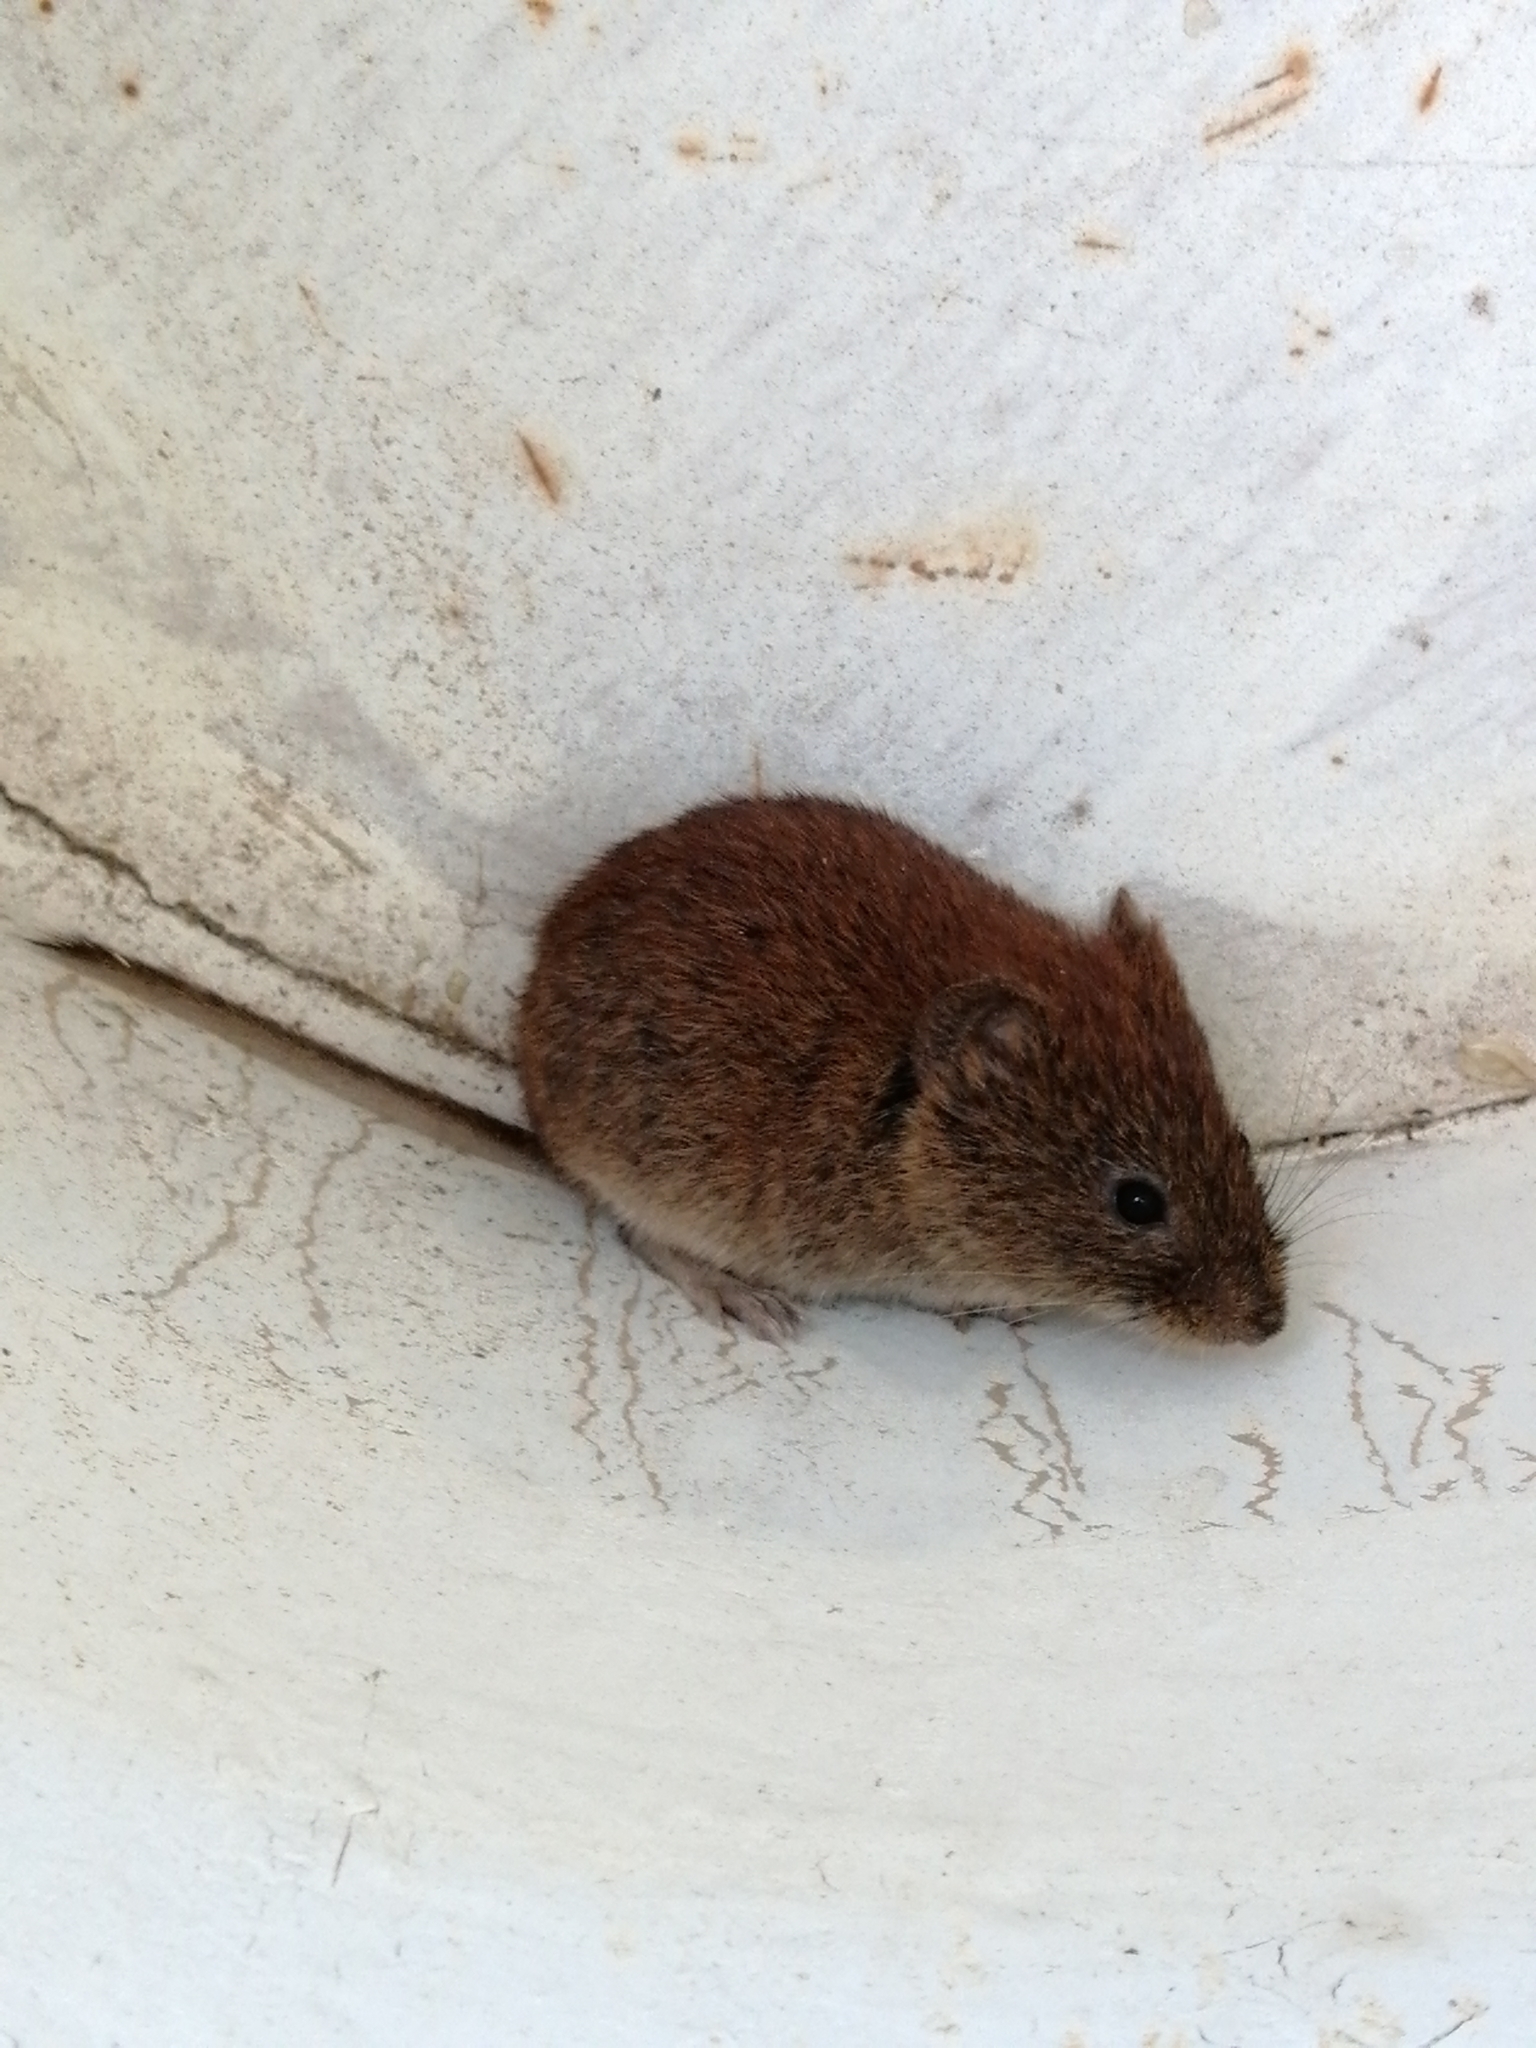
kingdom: Animalia
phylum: Chordata
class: Mammalia
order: Rodentia
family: Cricetidae
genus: Myodes
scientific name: Myodes glareolus
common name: Bank vole
